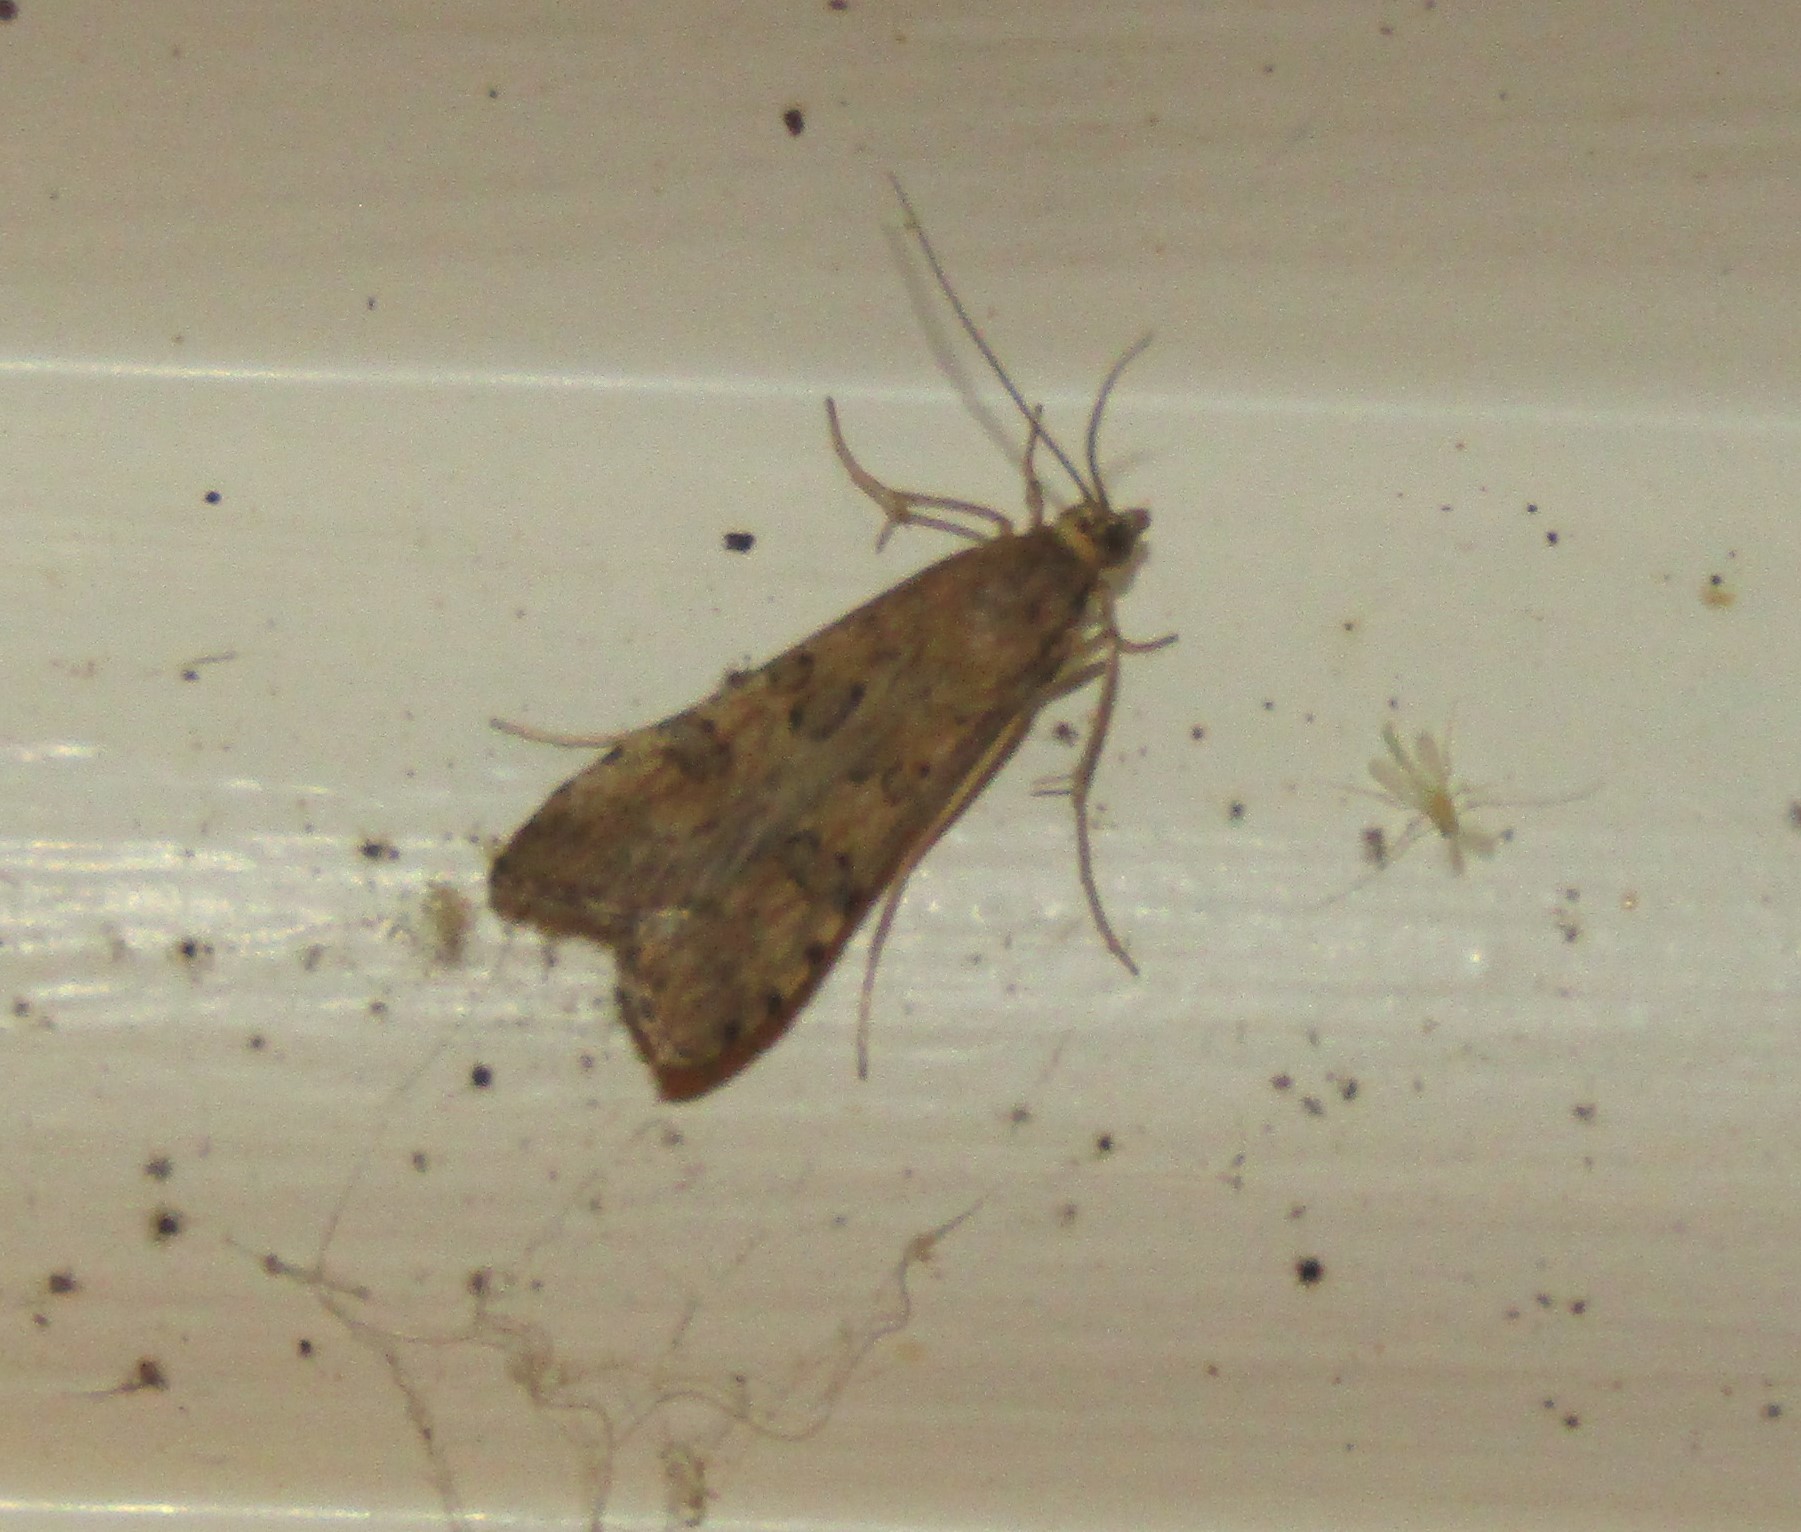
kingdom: Animalia
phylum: Arthropoda
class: Insecta
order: Lepidoptera
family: Crambidae
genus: Nomophila
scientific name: Nomophila nearctica
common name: American rush veneer
